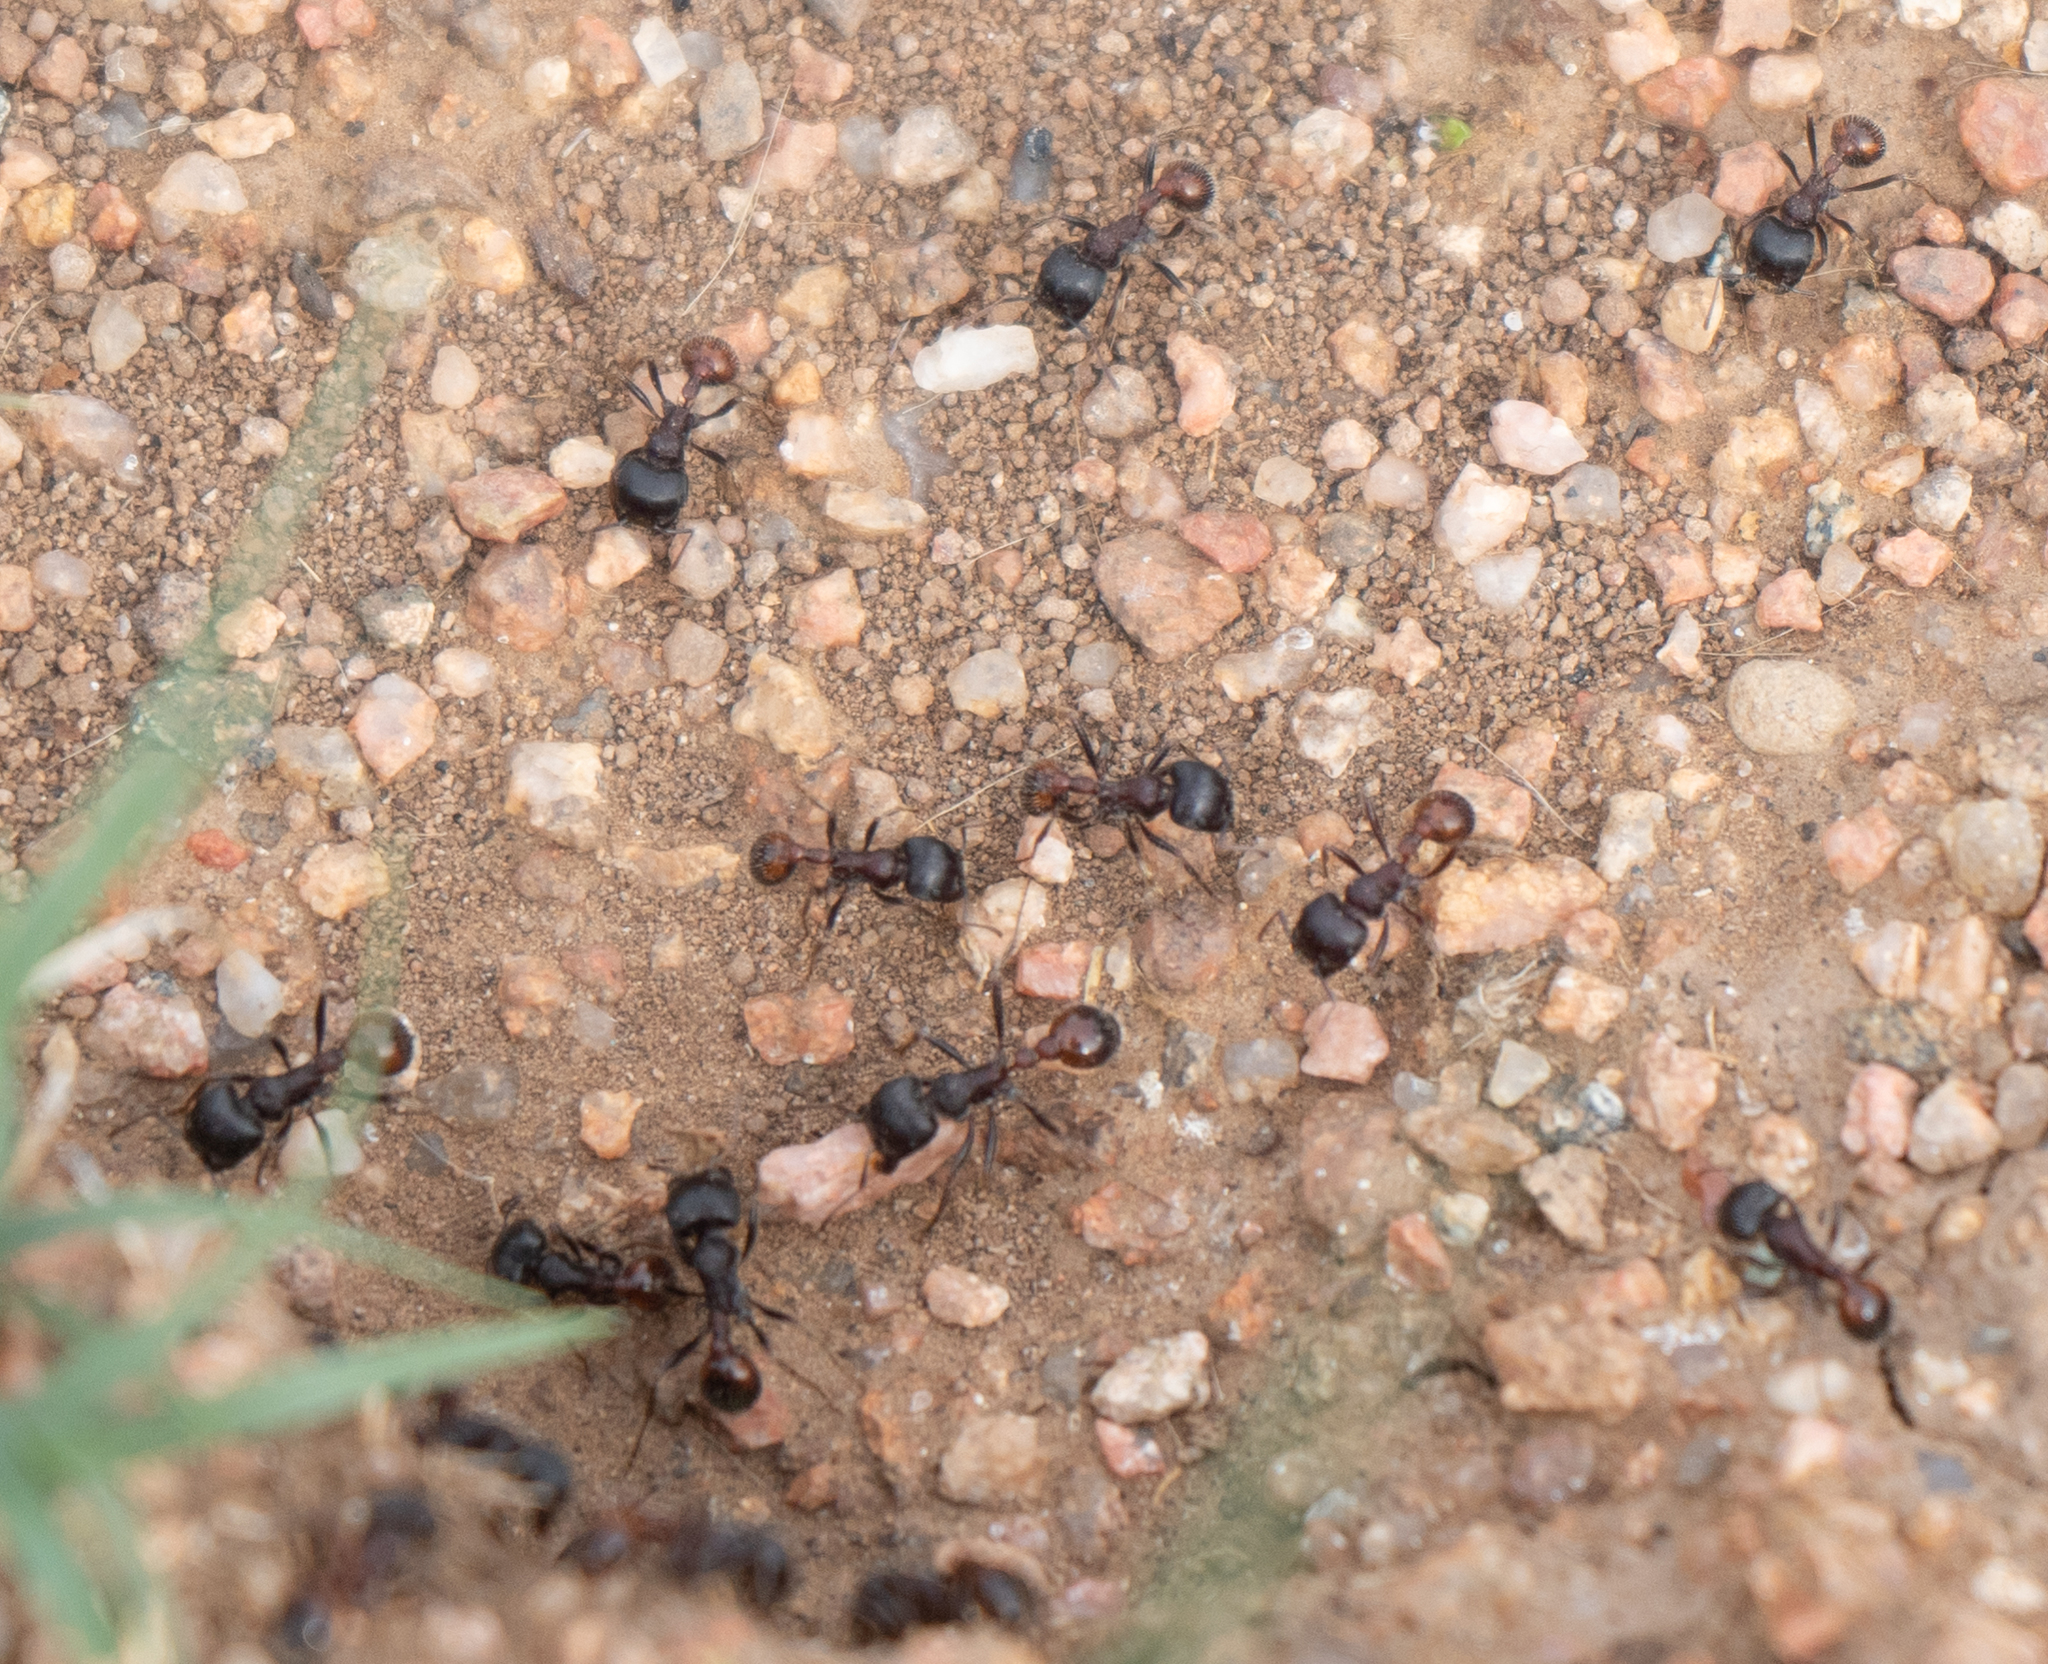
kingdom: Animalia
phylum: Arthropoda
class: Insecta
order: Hymenoptera
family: Formicidae
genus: Pogonomyrmex
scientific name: Pogonomyrmex rugosus
